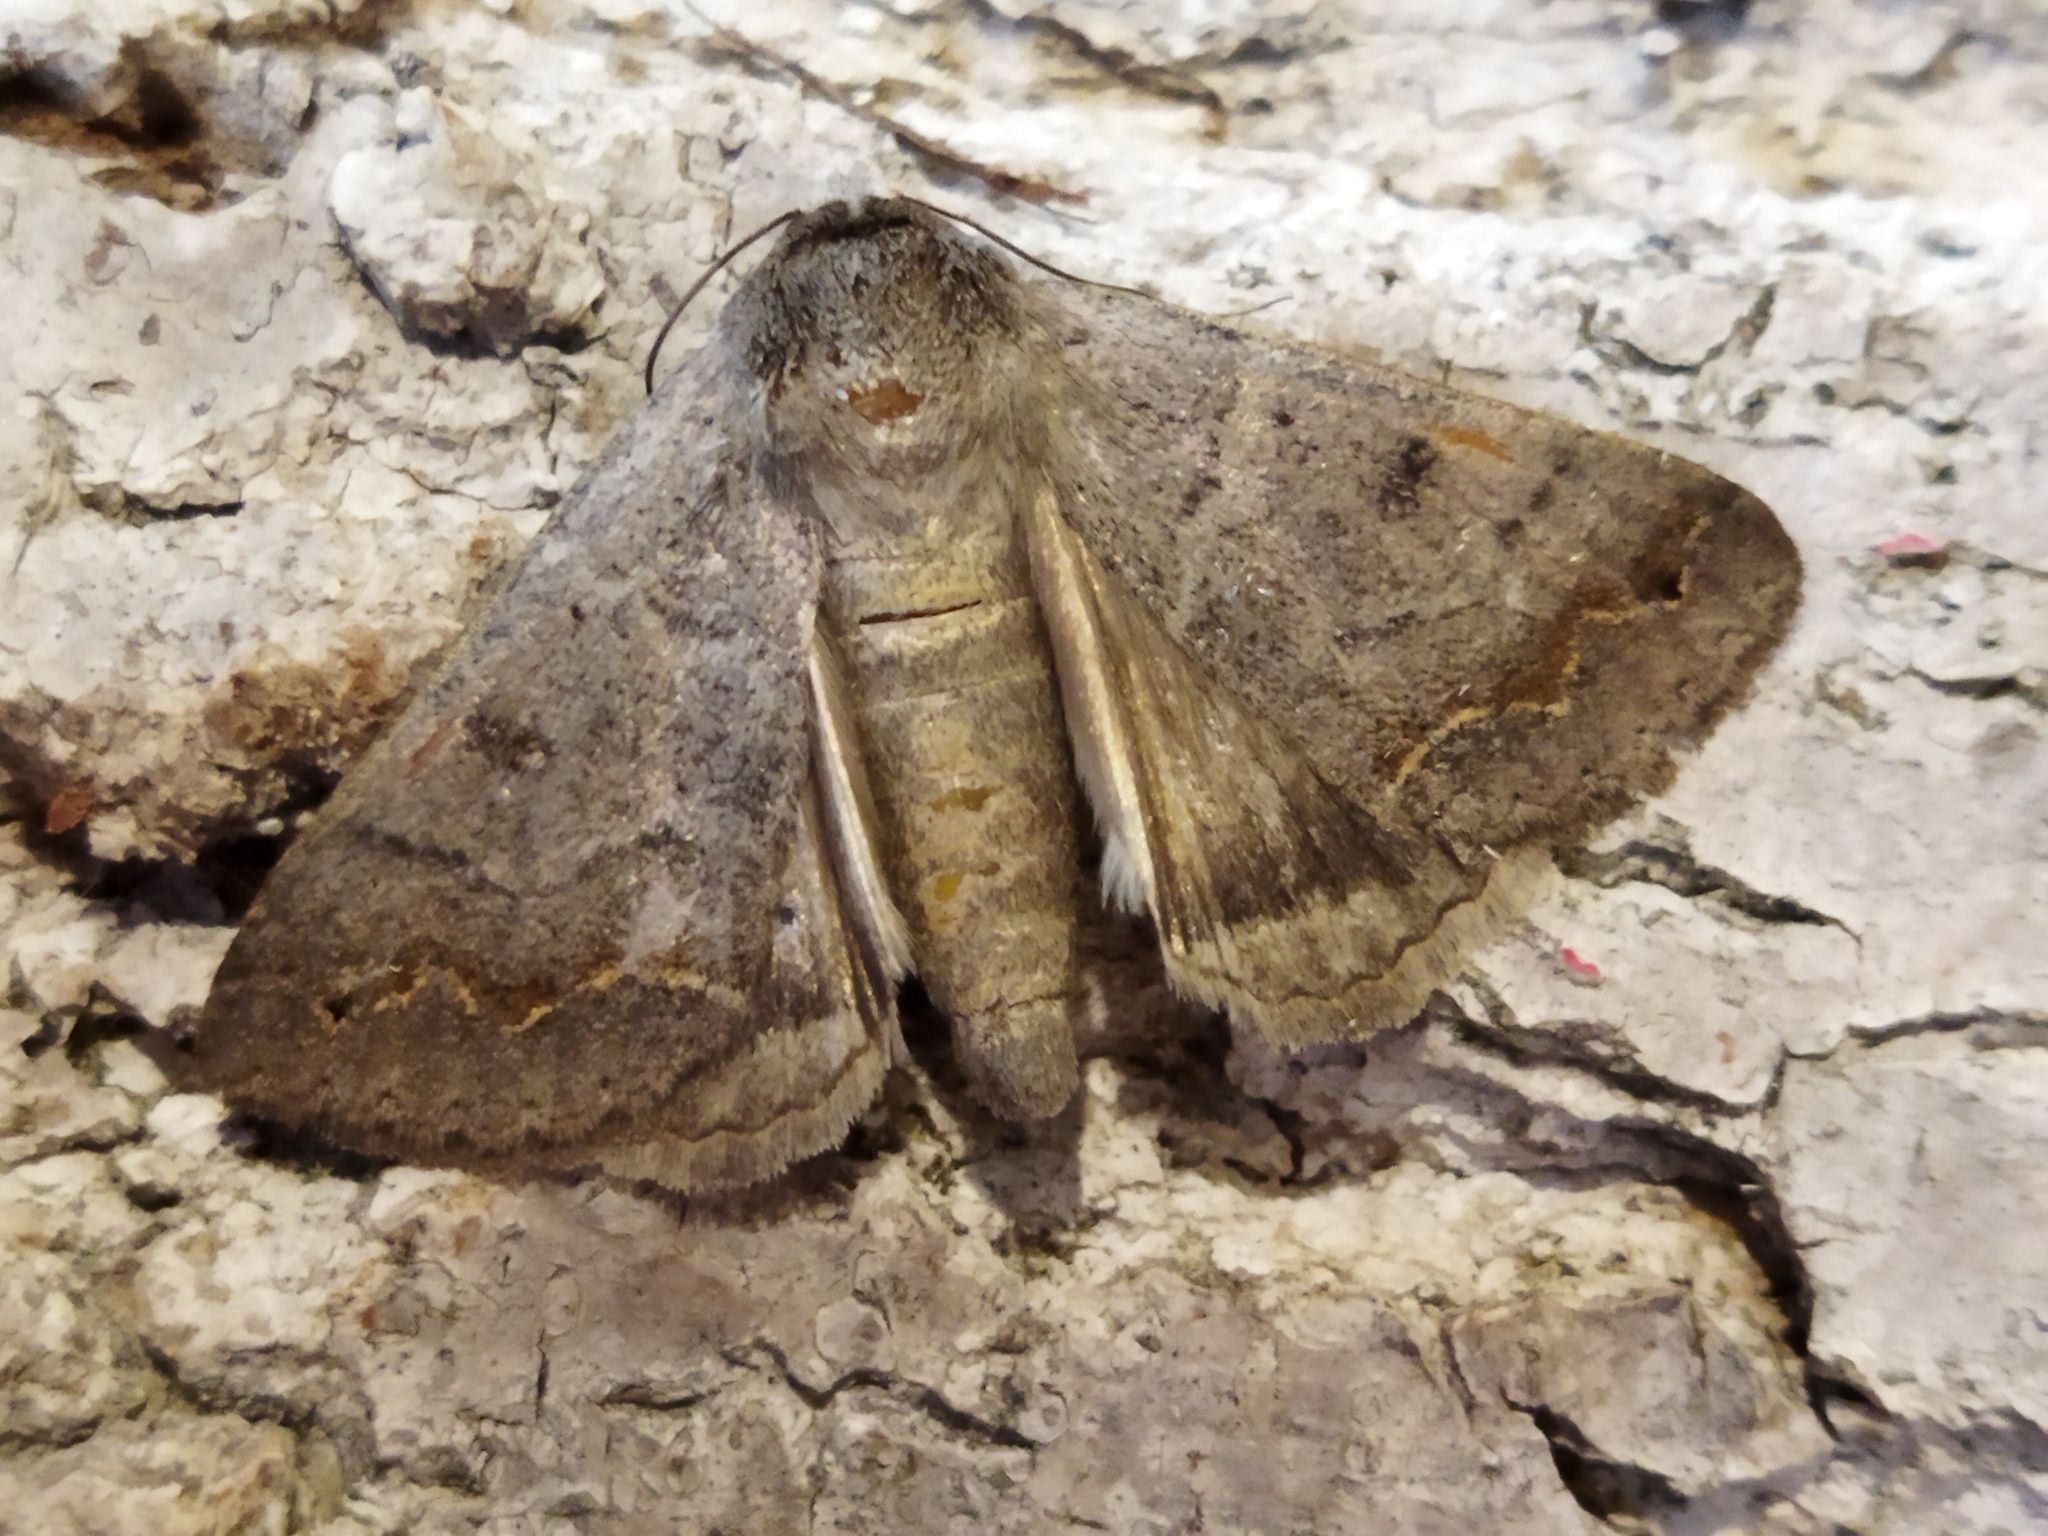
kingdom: Animalia
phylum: Arthropoda
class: Insecta
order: Lepidoptera
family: Erebidae
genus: Clytie
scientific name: Clytie syriaca
